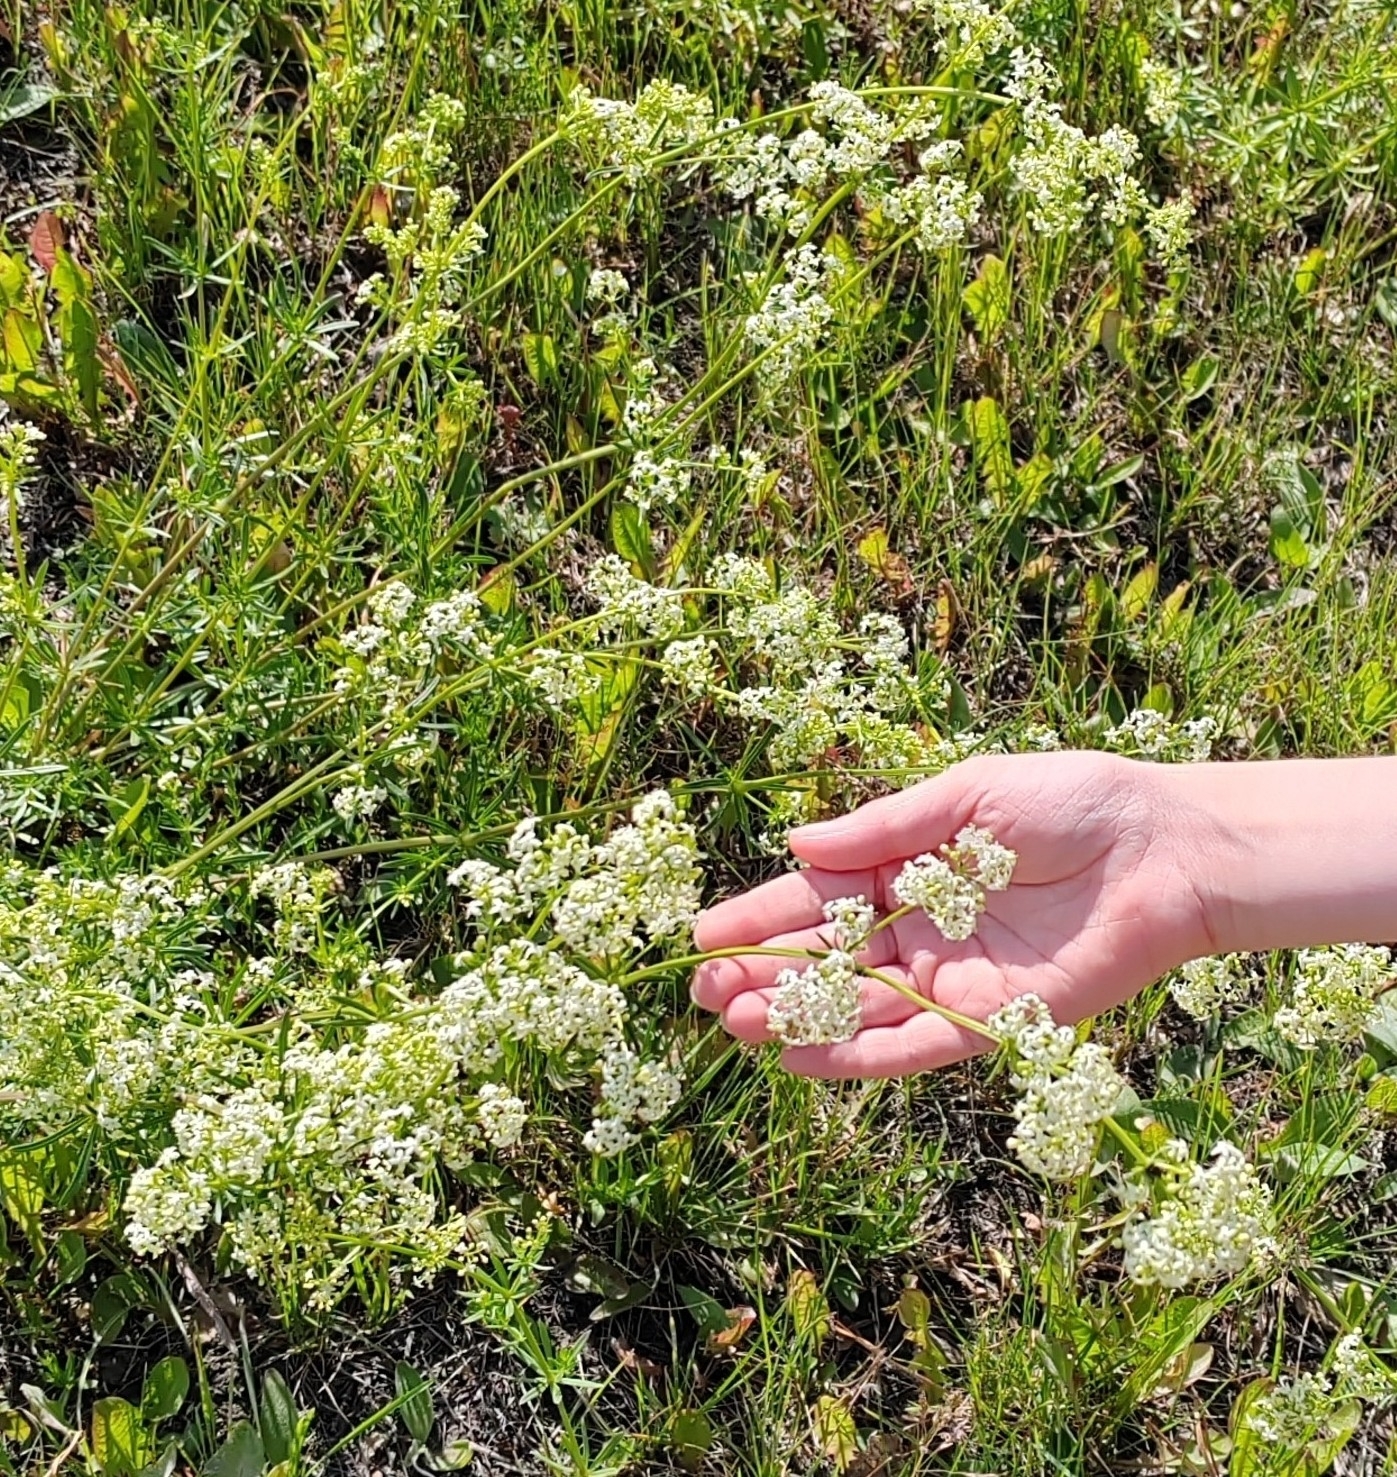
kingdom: Plantae
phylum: Tracheophyta
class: Magnoliopsida
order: Gentianales
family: Rubiaceae
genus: Galium
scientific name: Galium mollugo
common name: Hedge bedstraw
